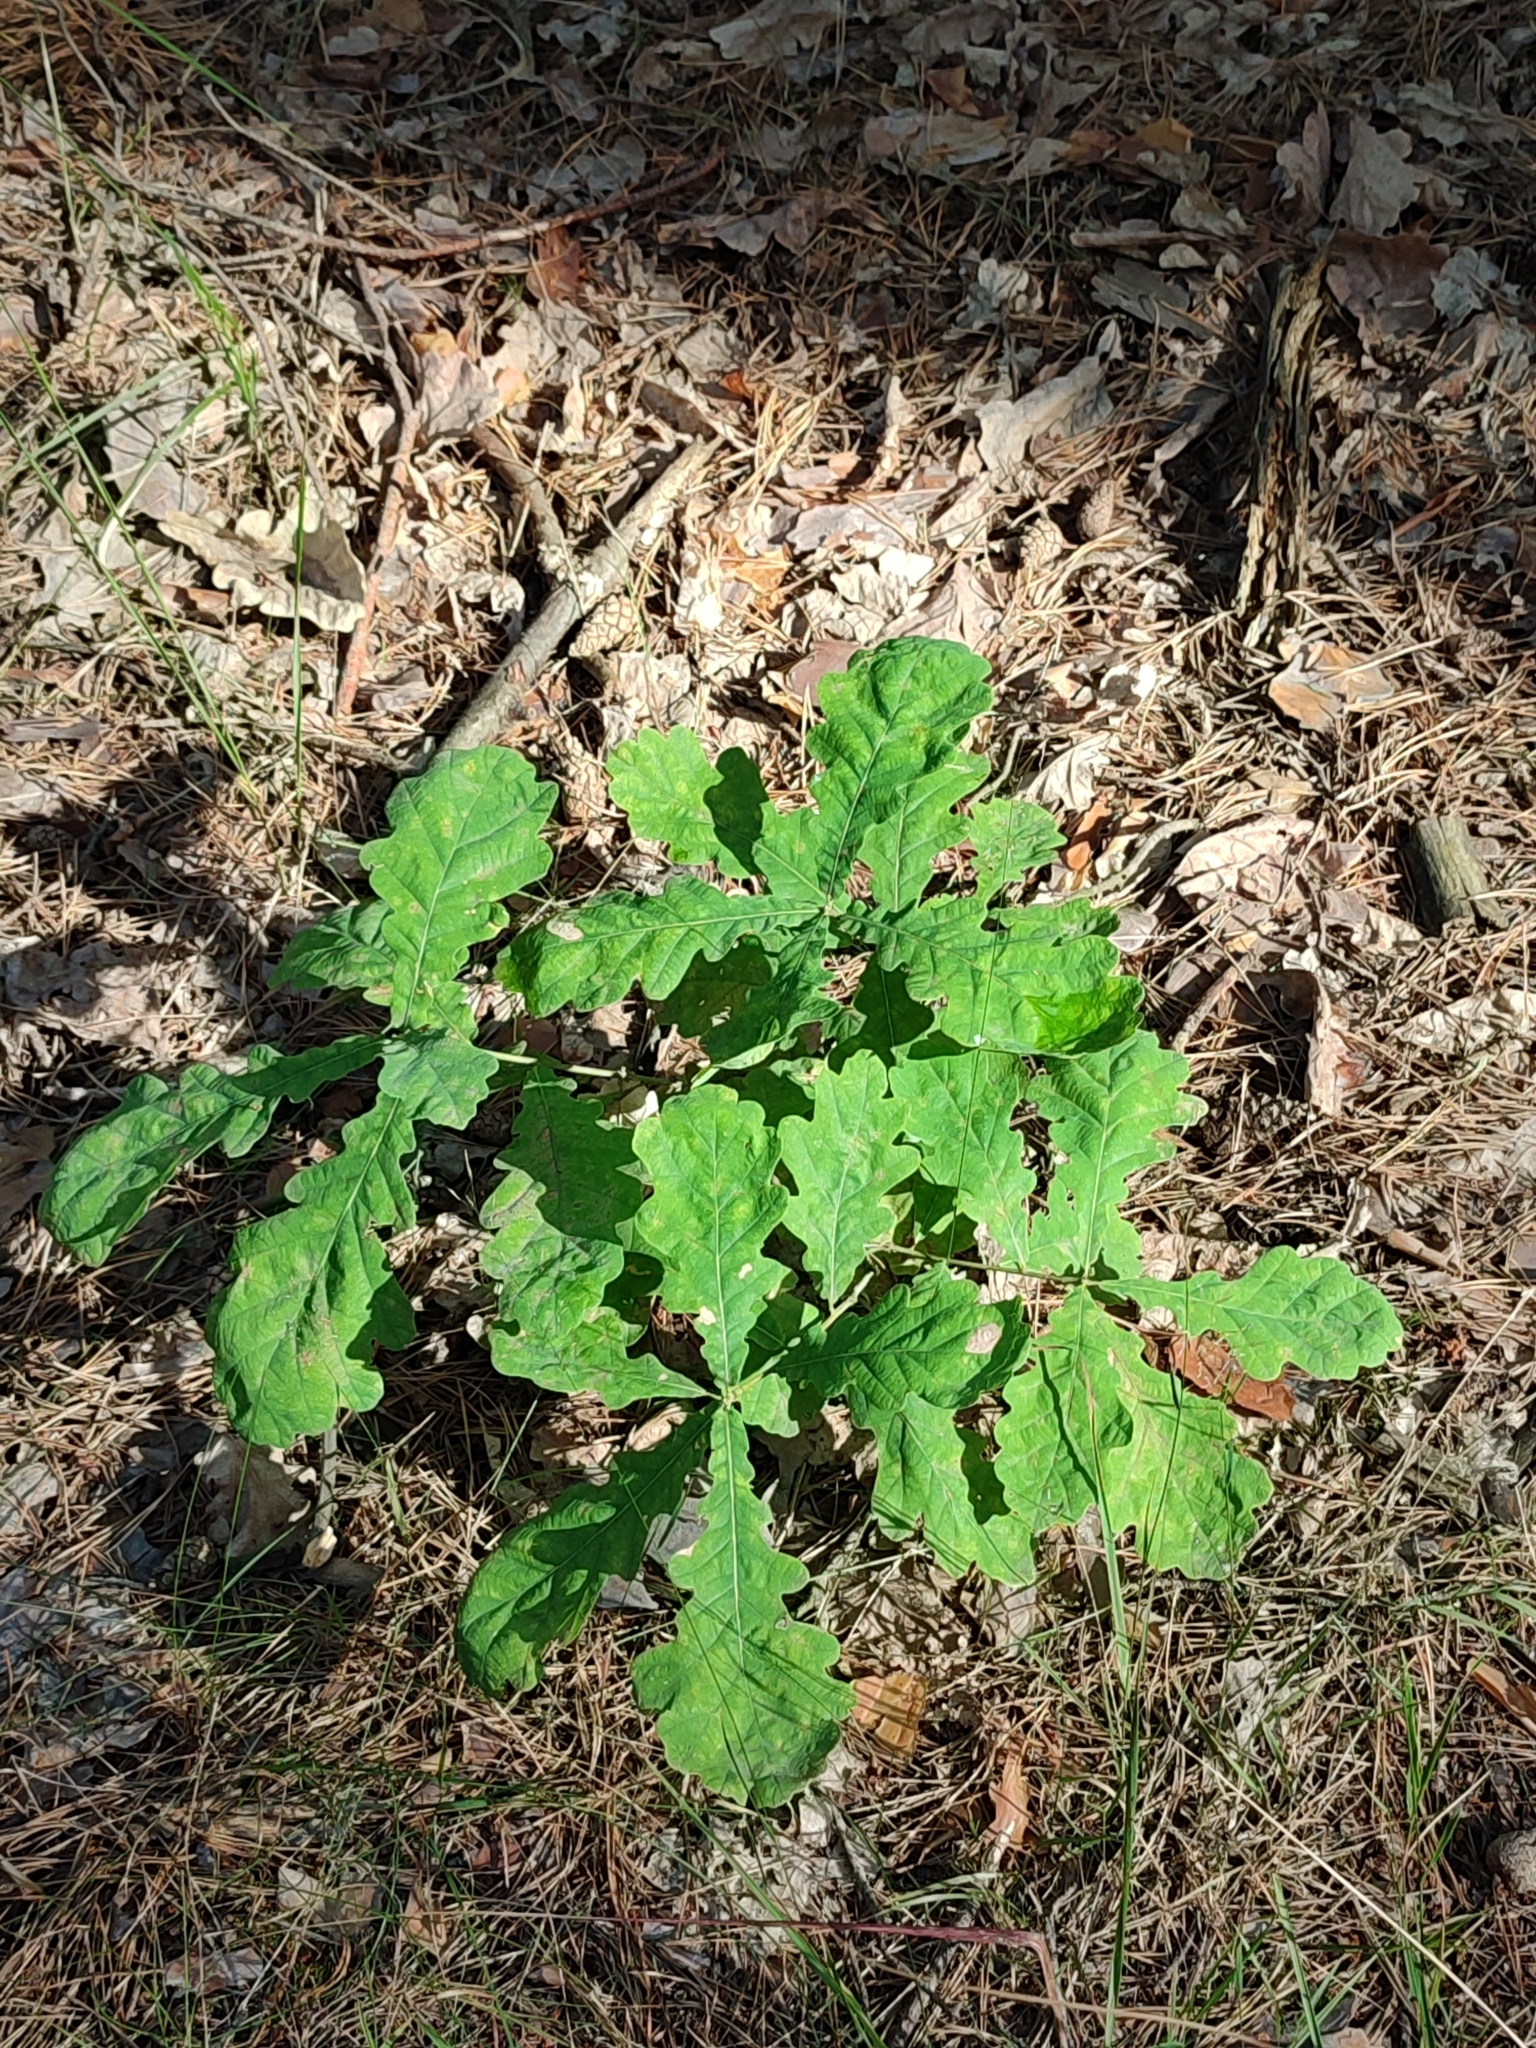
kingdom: Plantae
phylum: Tracheophyta
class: Magnoliopsida
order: Fagales
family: Fagaceae
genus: Quercus
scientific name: Quercus robur
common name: Pedunculate oak
